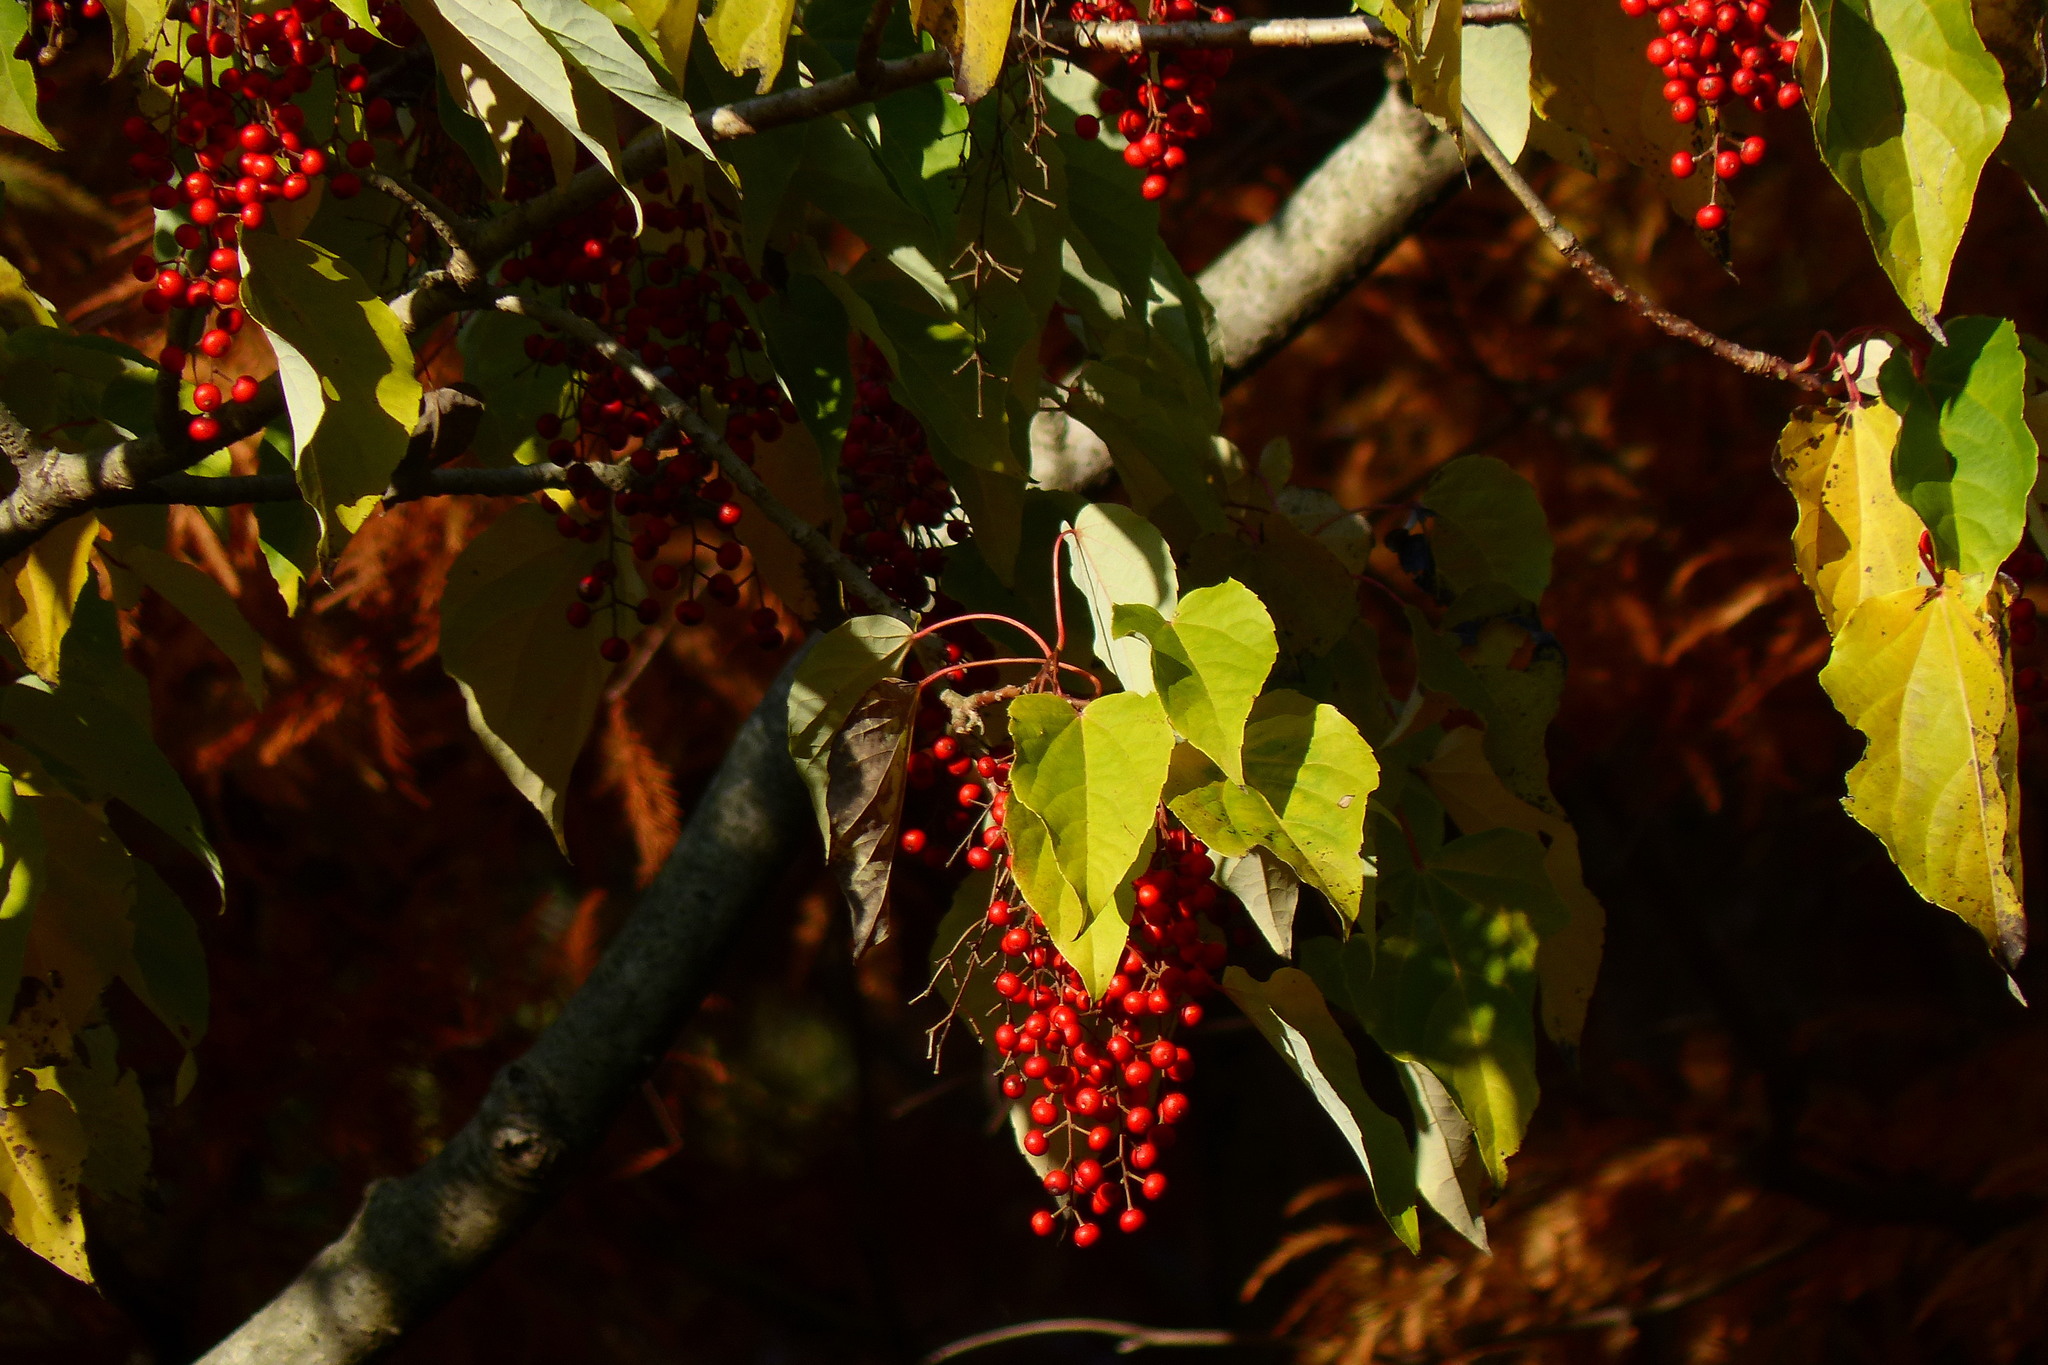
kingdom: Plantae
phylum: Tracheophyta
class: Magnoliopsida
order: Malpighiales
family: Salicaceae
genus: Idesia
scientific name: Idesia polycarpa
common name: Idesia tree
